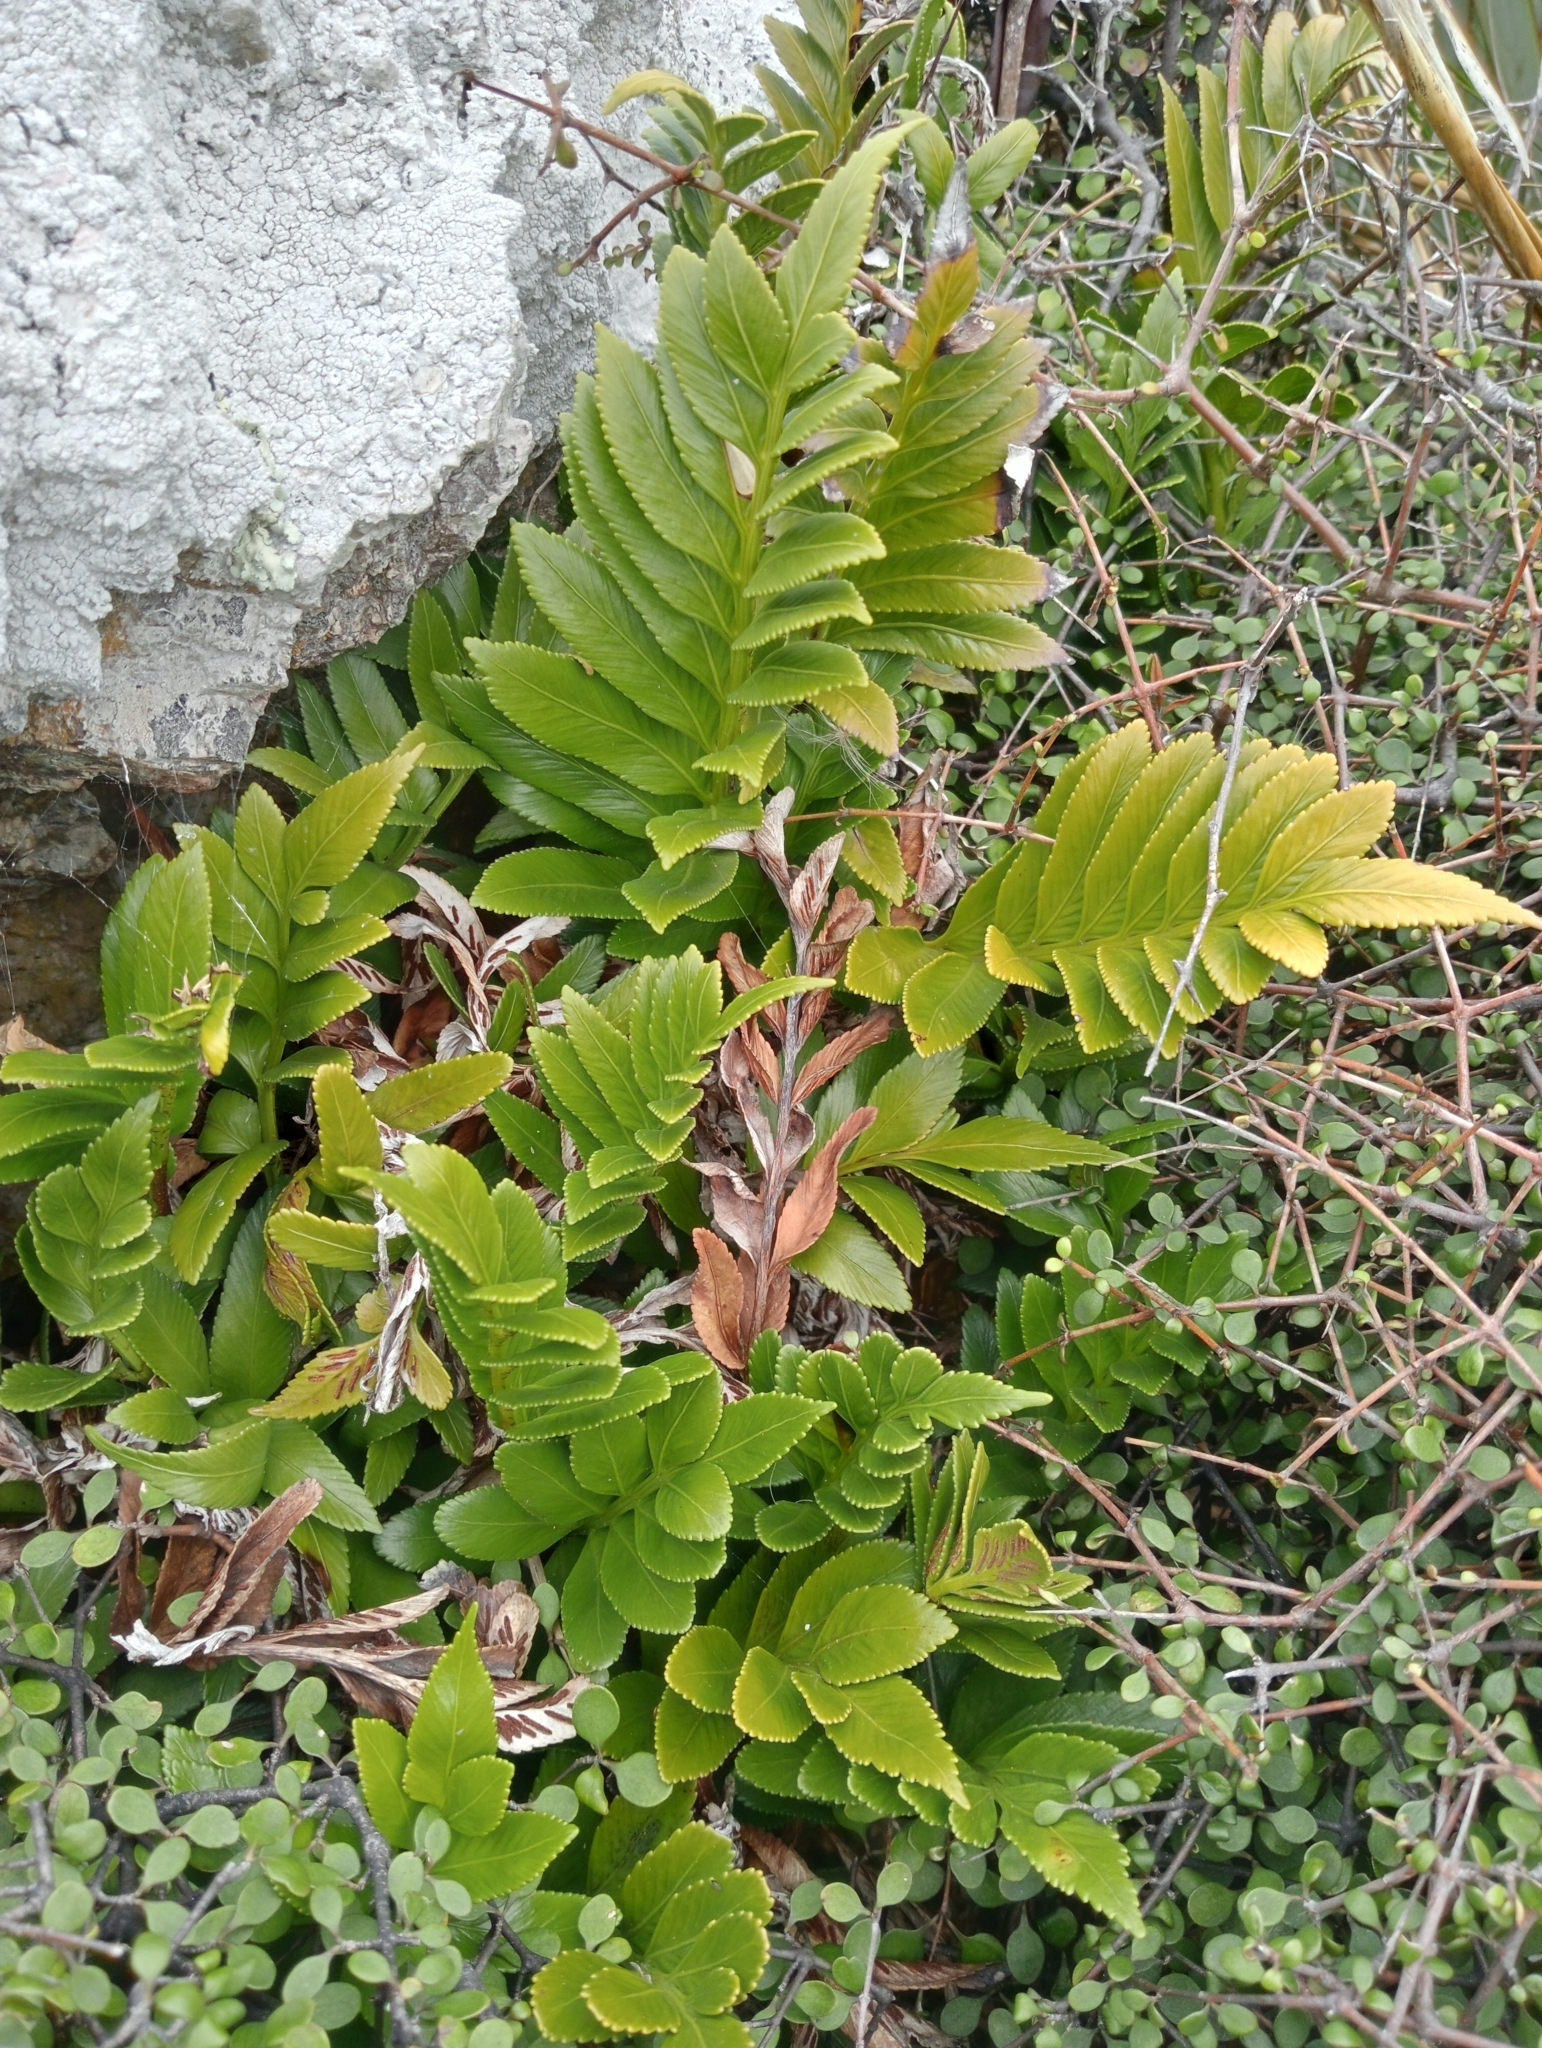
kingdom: Plantae
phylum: Tracheophyta
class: Polypodiopsida
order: Polypodiales
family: Aspleniaceae
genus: Asplenium
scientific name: Asplenium obtusatum
